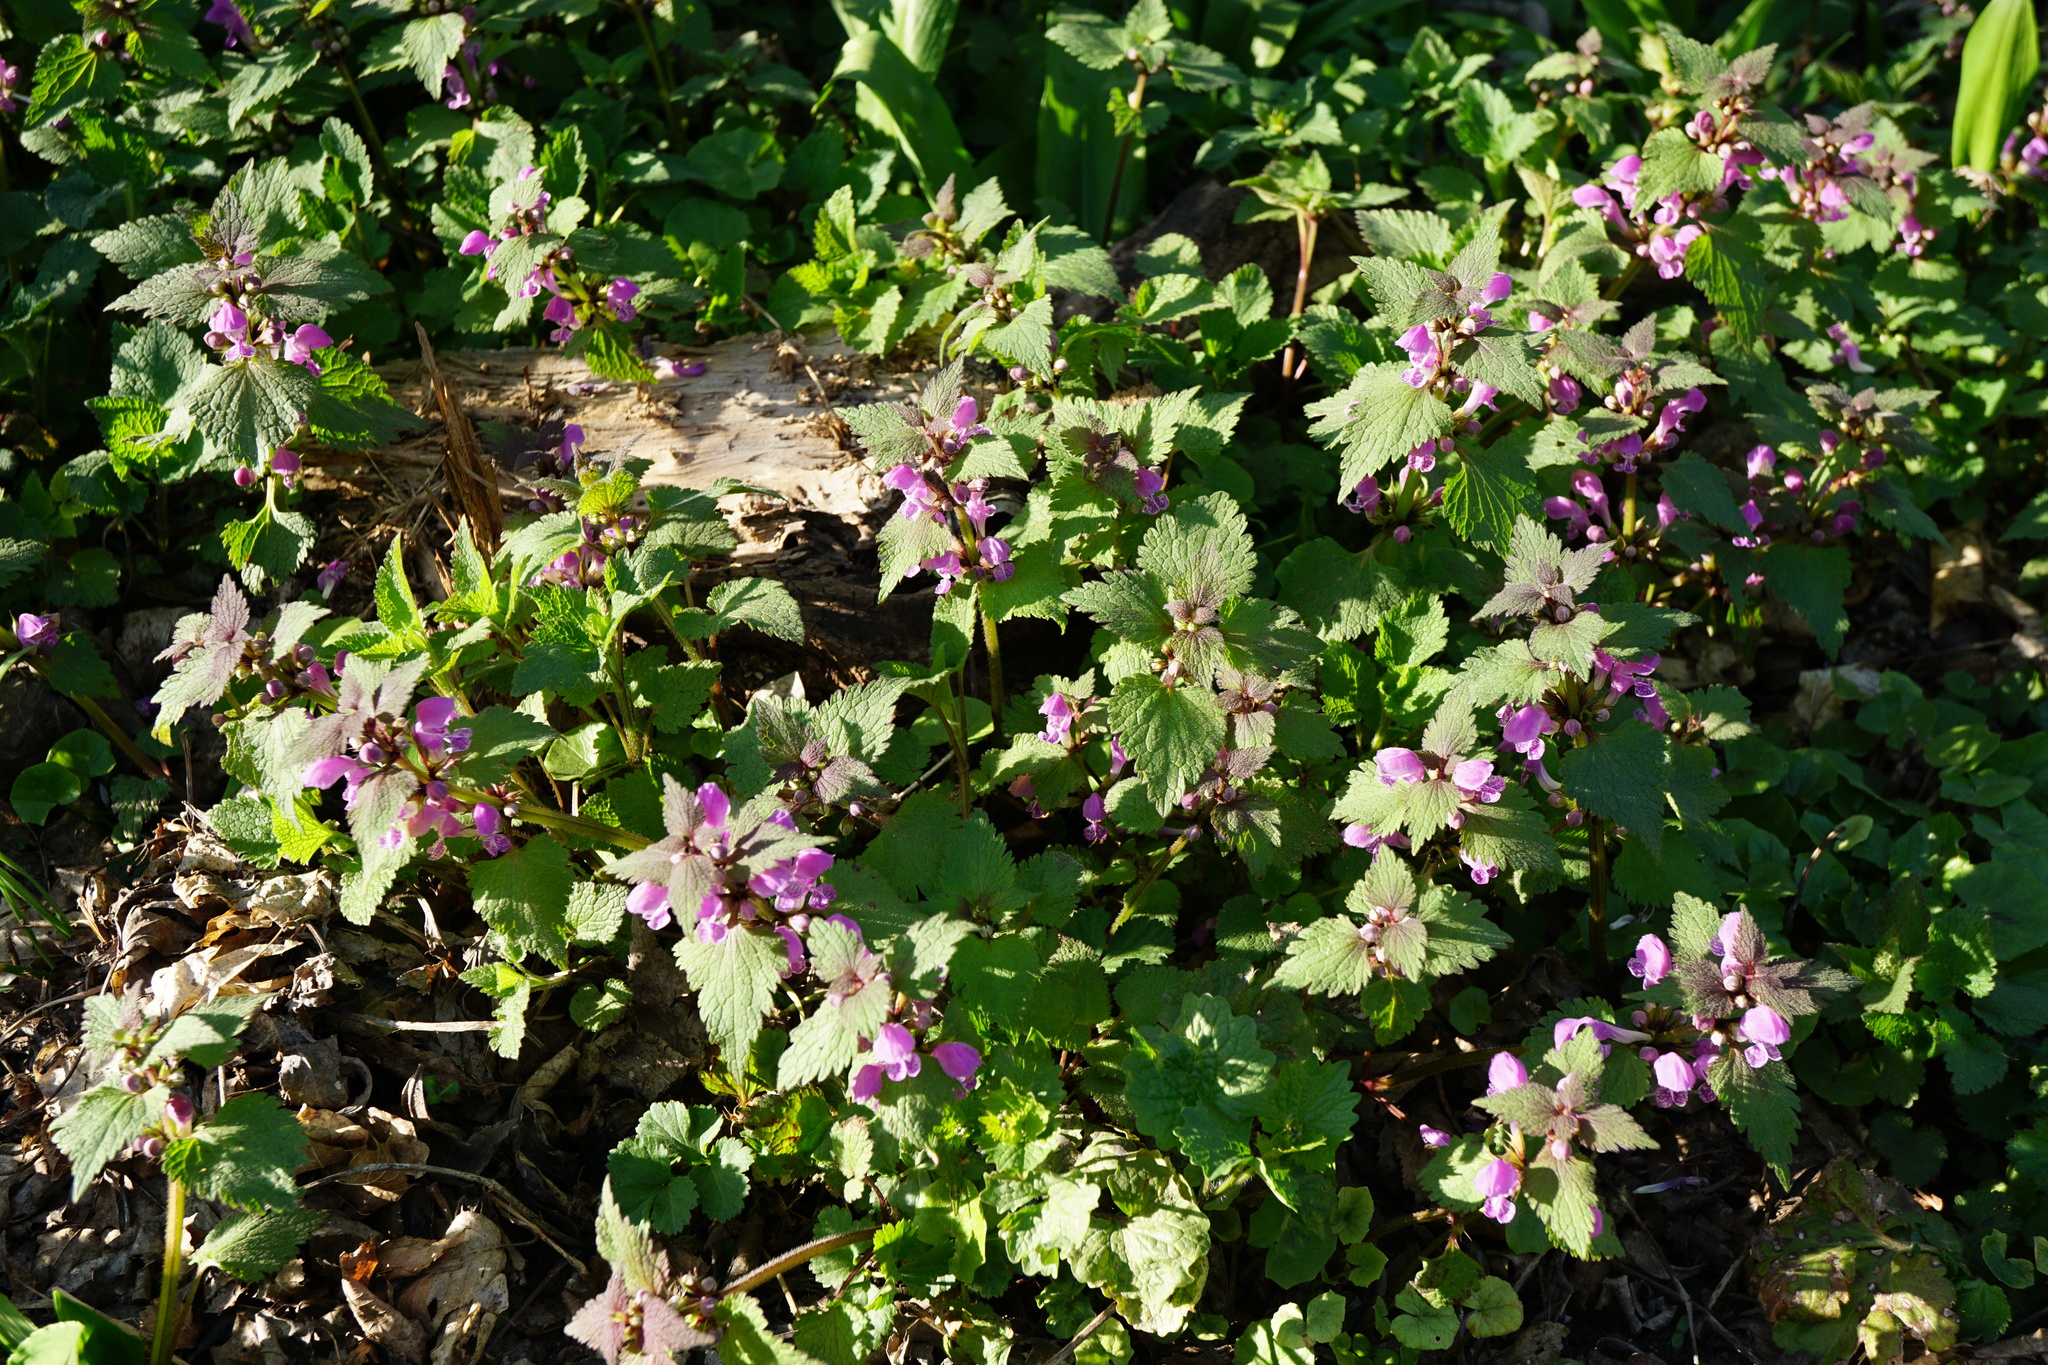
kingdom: Plantae
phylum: Tracheophyta
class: Magnoliopsida
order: Lamiales
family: Lamiaceae
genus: Lamium
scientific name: Lamium maculatum
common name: Spotted dead-nettle
